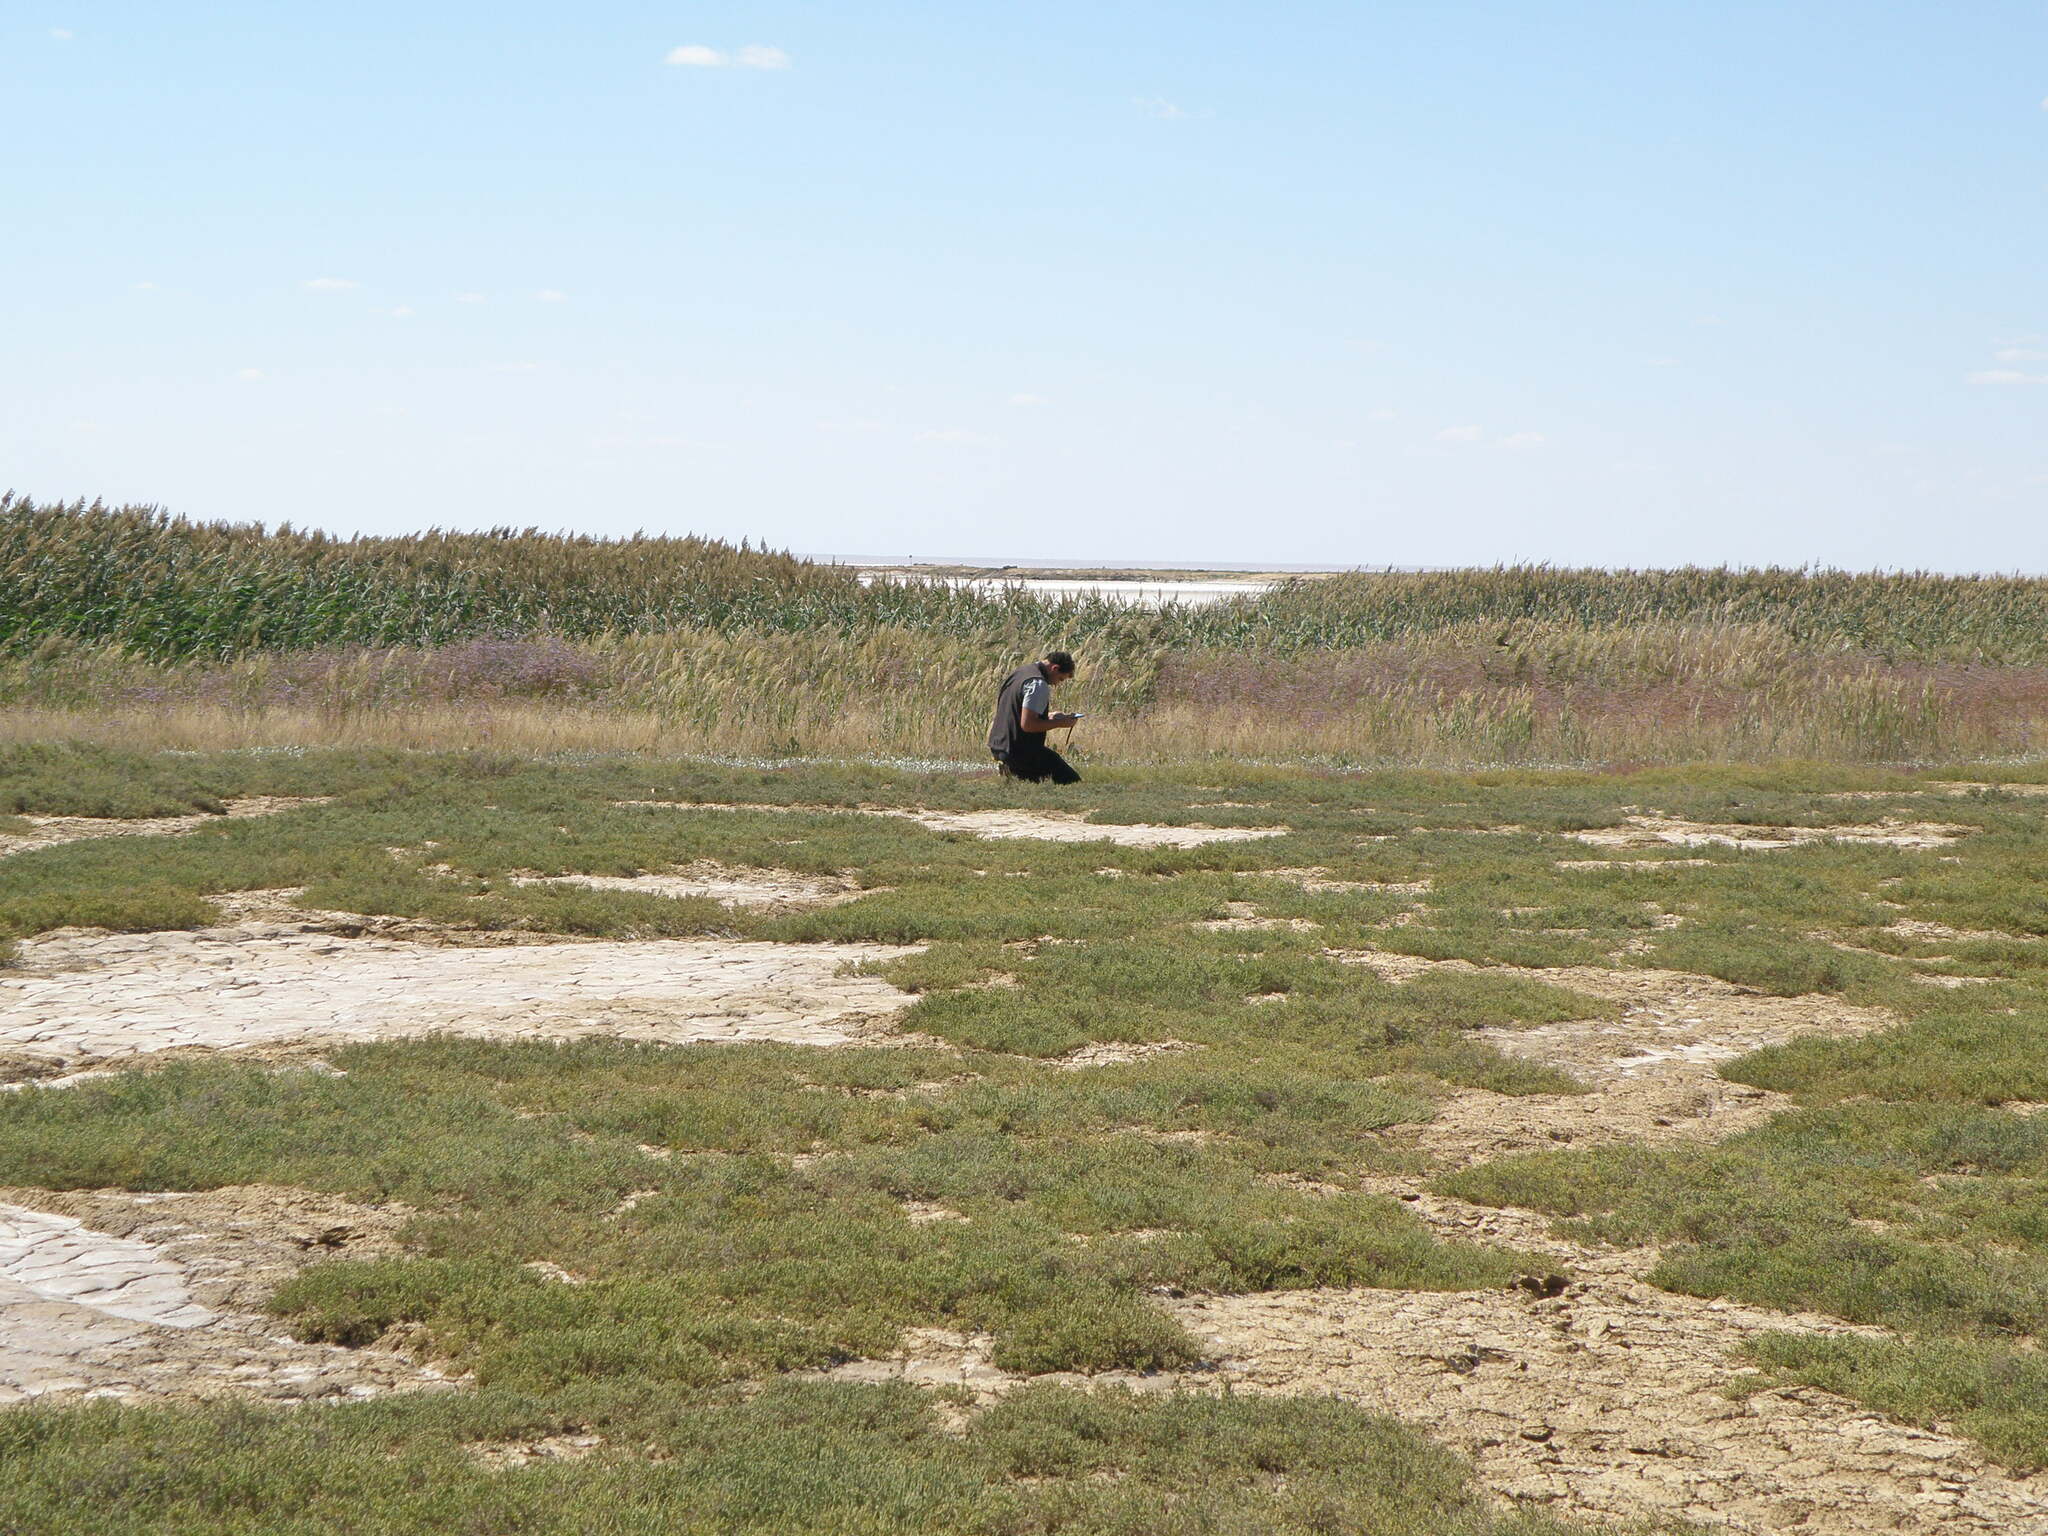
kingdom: Plantae
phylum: Tracheophyta
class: Magnoliopsida
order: Caryophyllales
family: Amaranthaceae
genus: Halocnemum
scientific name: Halocnemum strobilaceum
